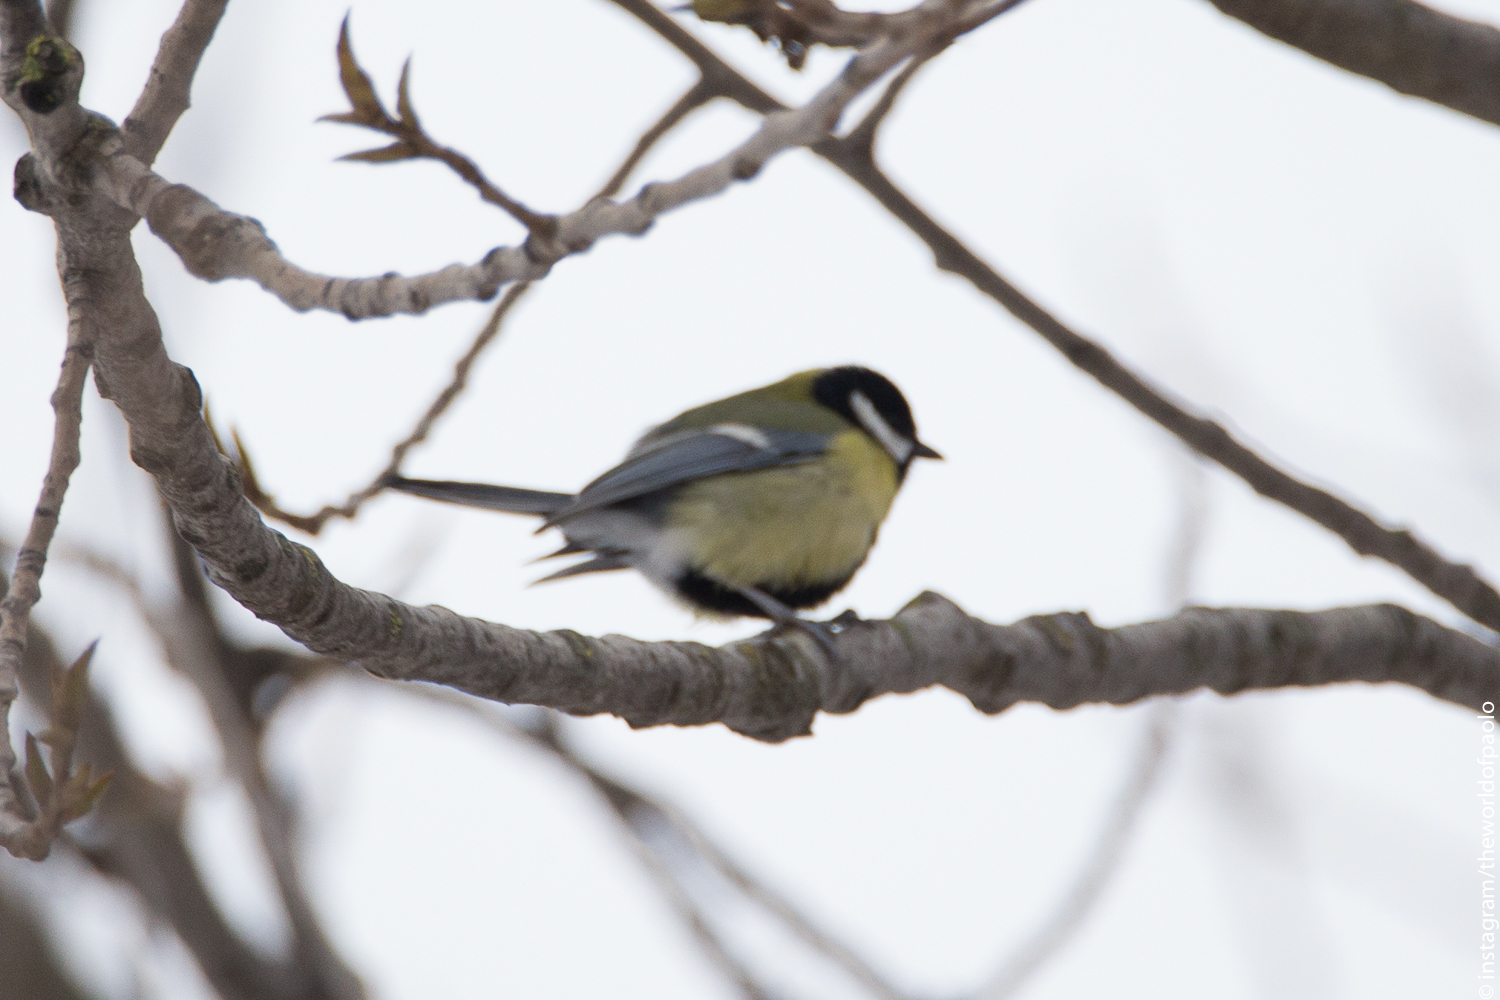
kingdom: Animalia
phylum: Chordata
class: Aves
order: Passeriformes
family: Paridae
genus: Parus
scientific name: Parus major
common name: Great tit
